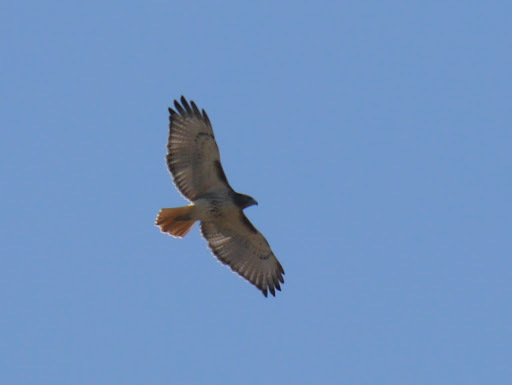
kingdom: Animalia
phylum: Chordata
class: Aves
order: Accipitriformes
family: Accipitridae
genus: Buteo
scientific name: Buteo jamaicensis
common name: Red-tailed hawk
